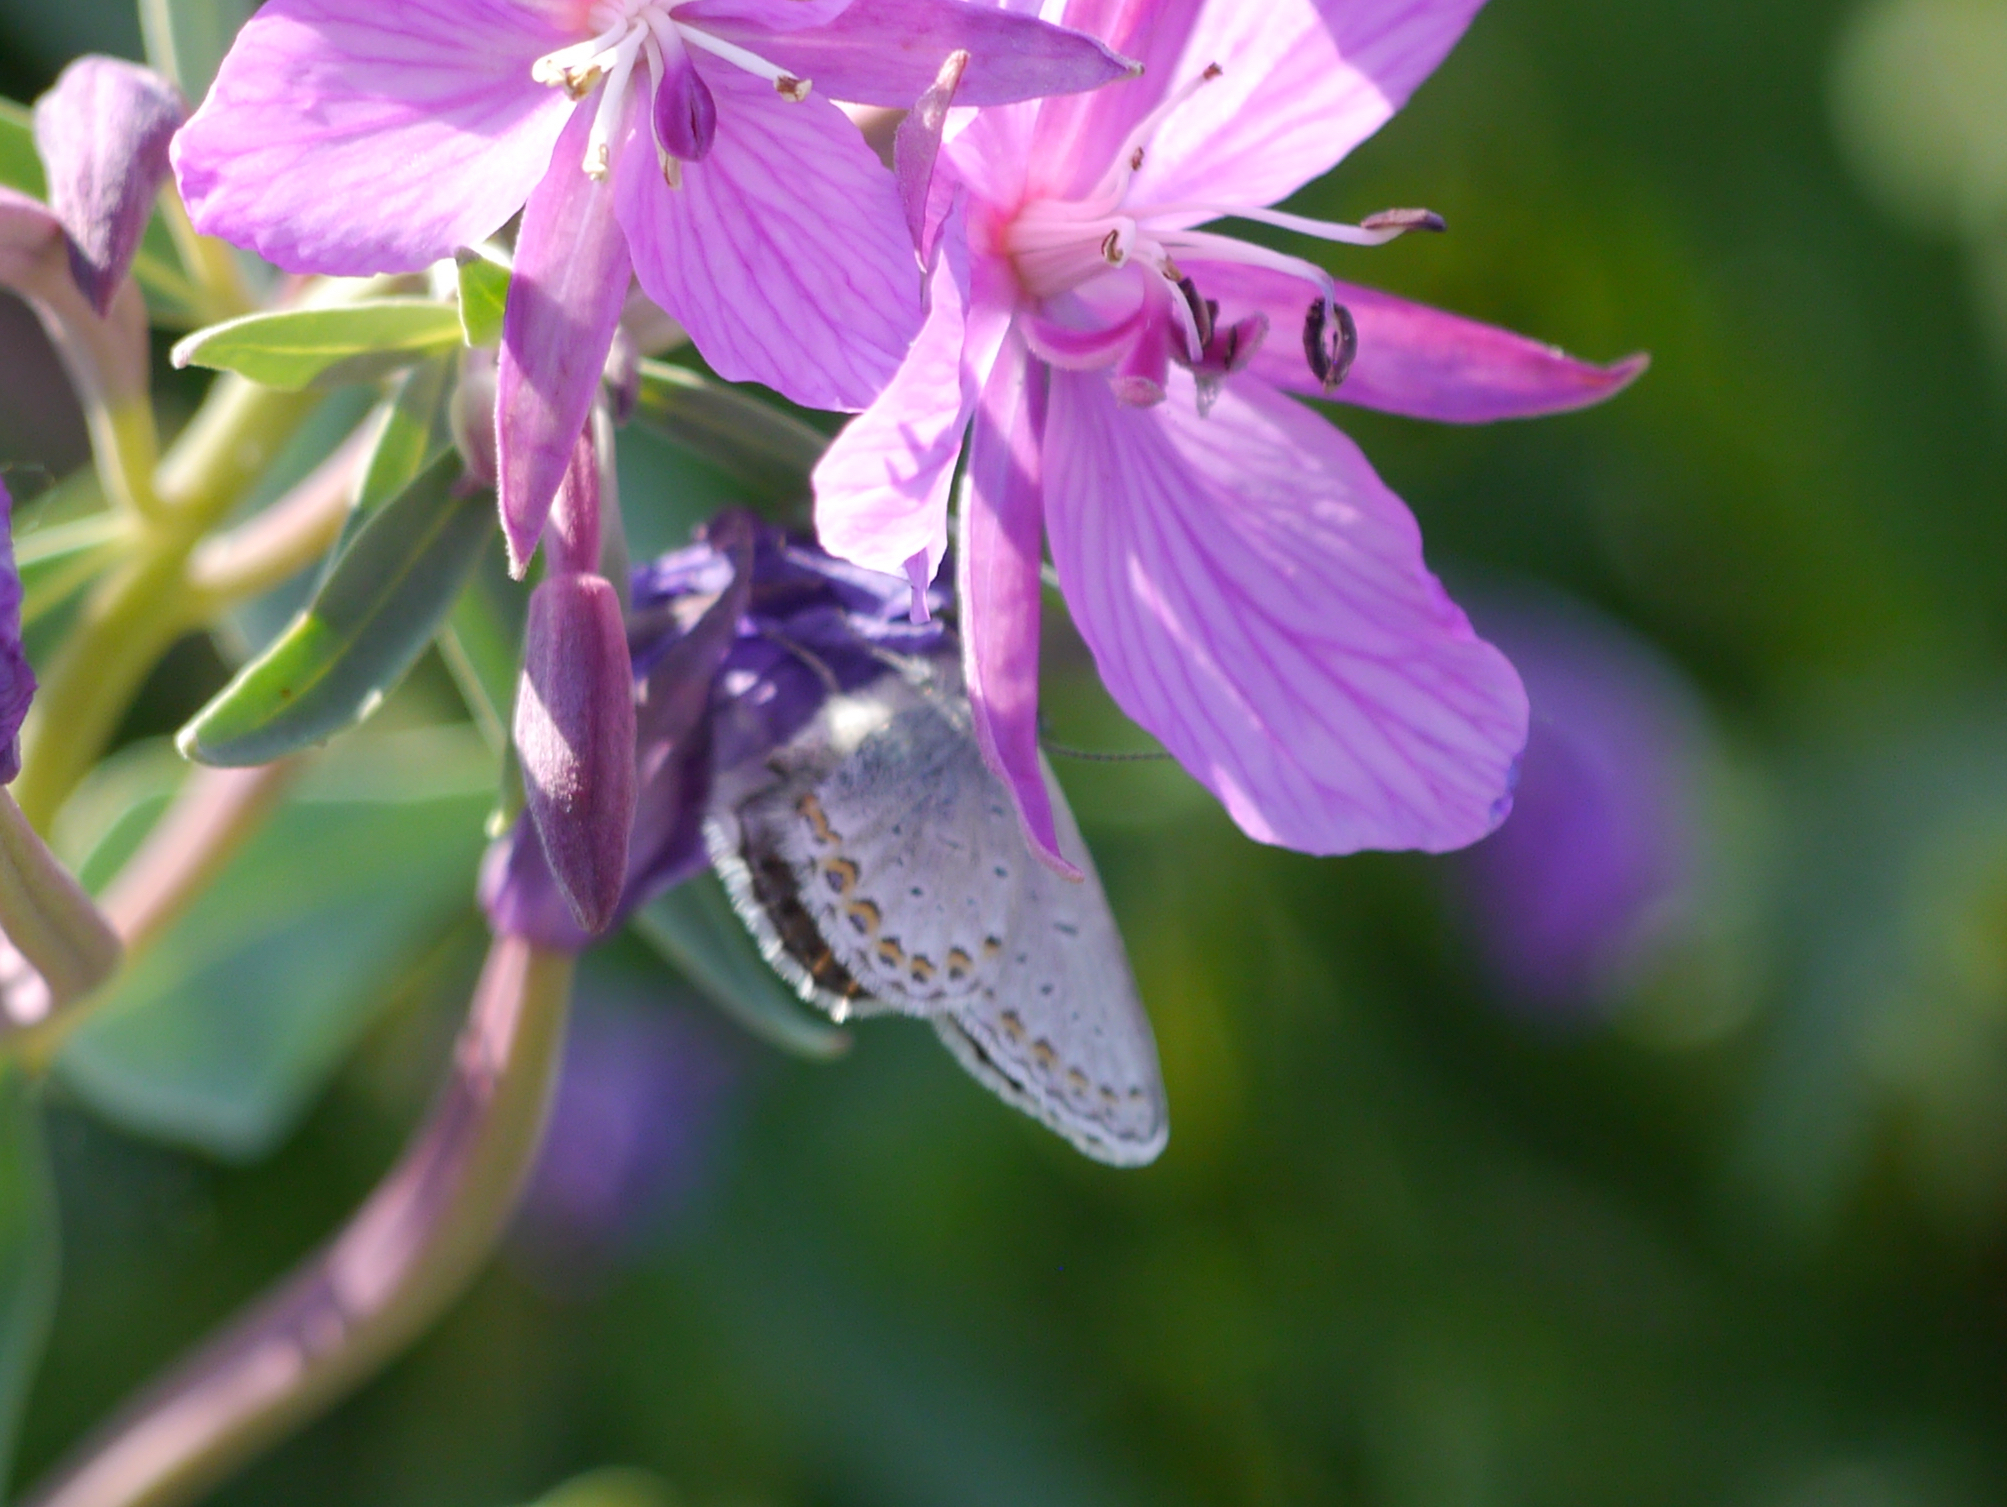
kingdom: Animalia
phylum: Arthropoda
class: Insecta
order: Lepidoptera
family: Lycaenidae
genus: Lycaeides
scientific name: Lycaeides idas
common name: Northern blue
